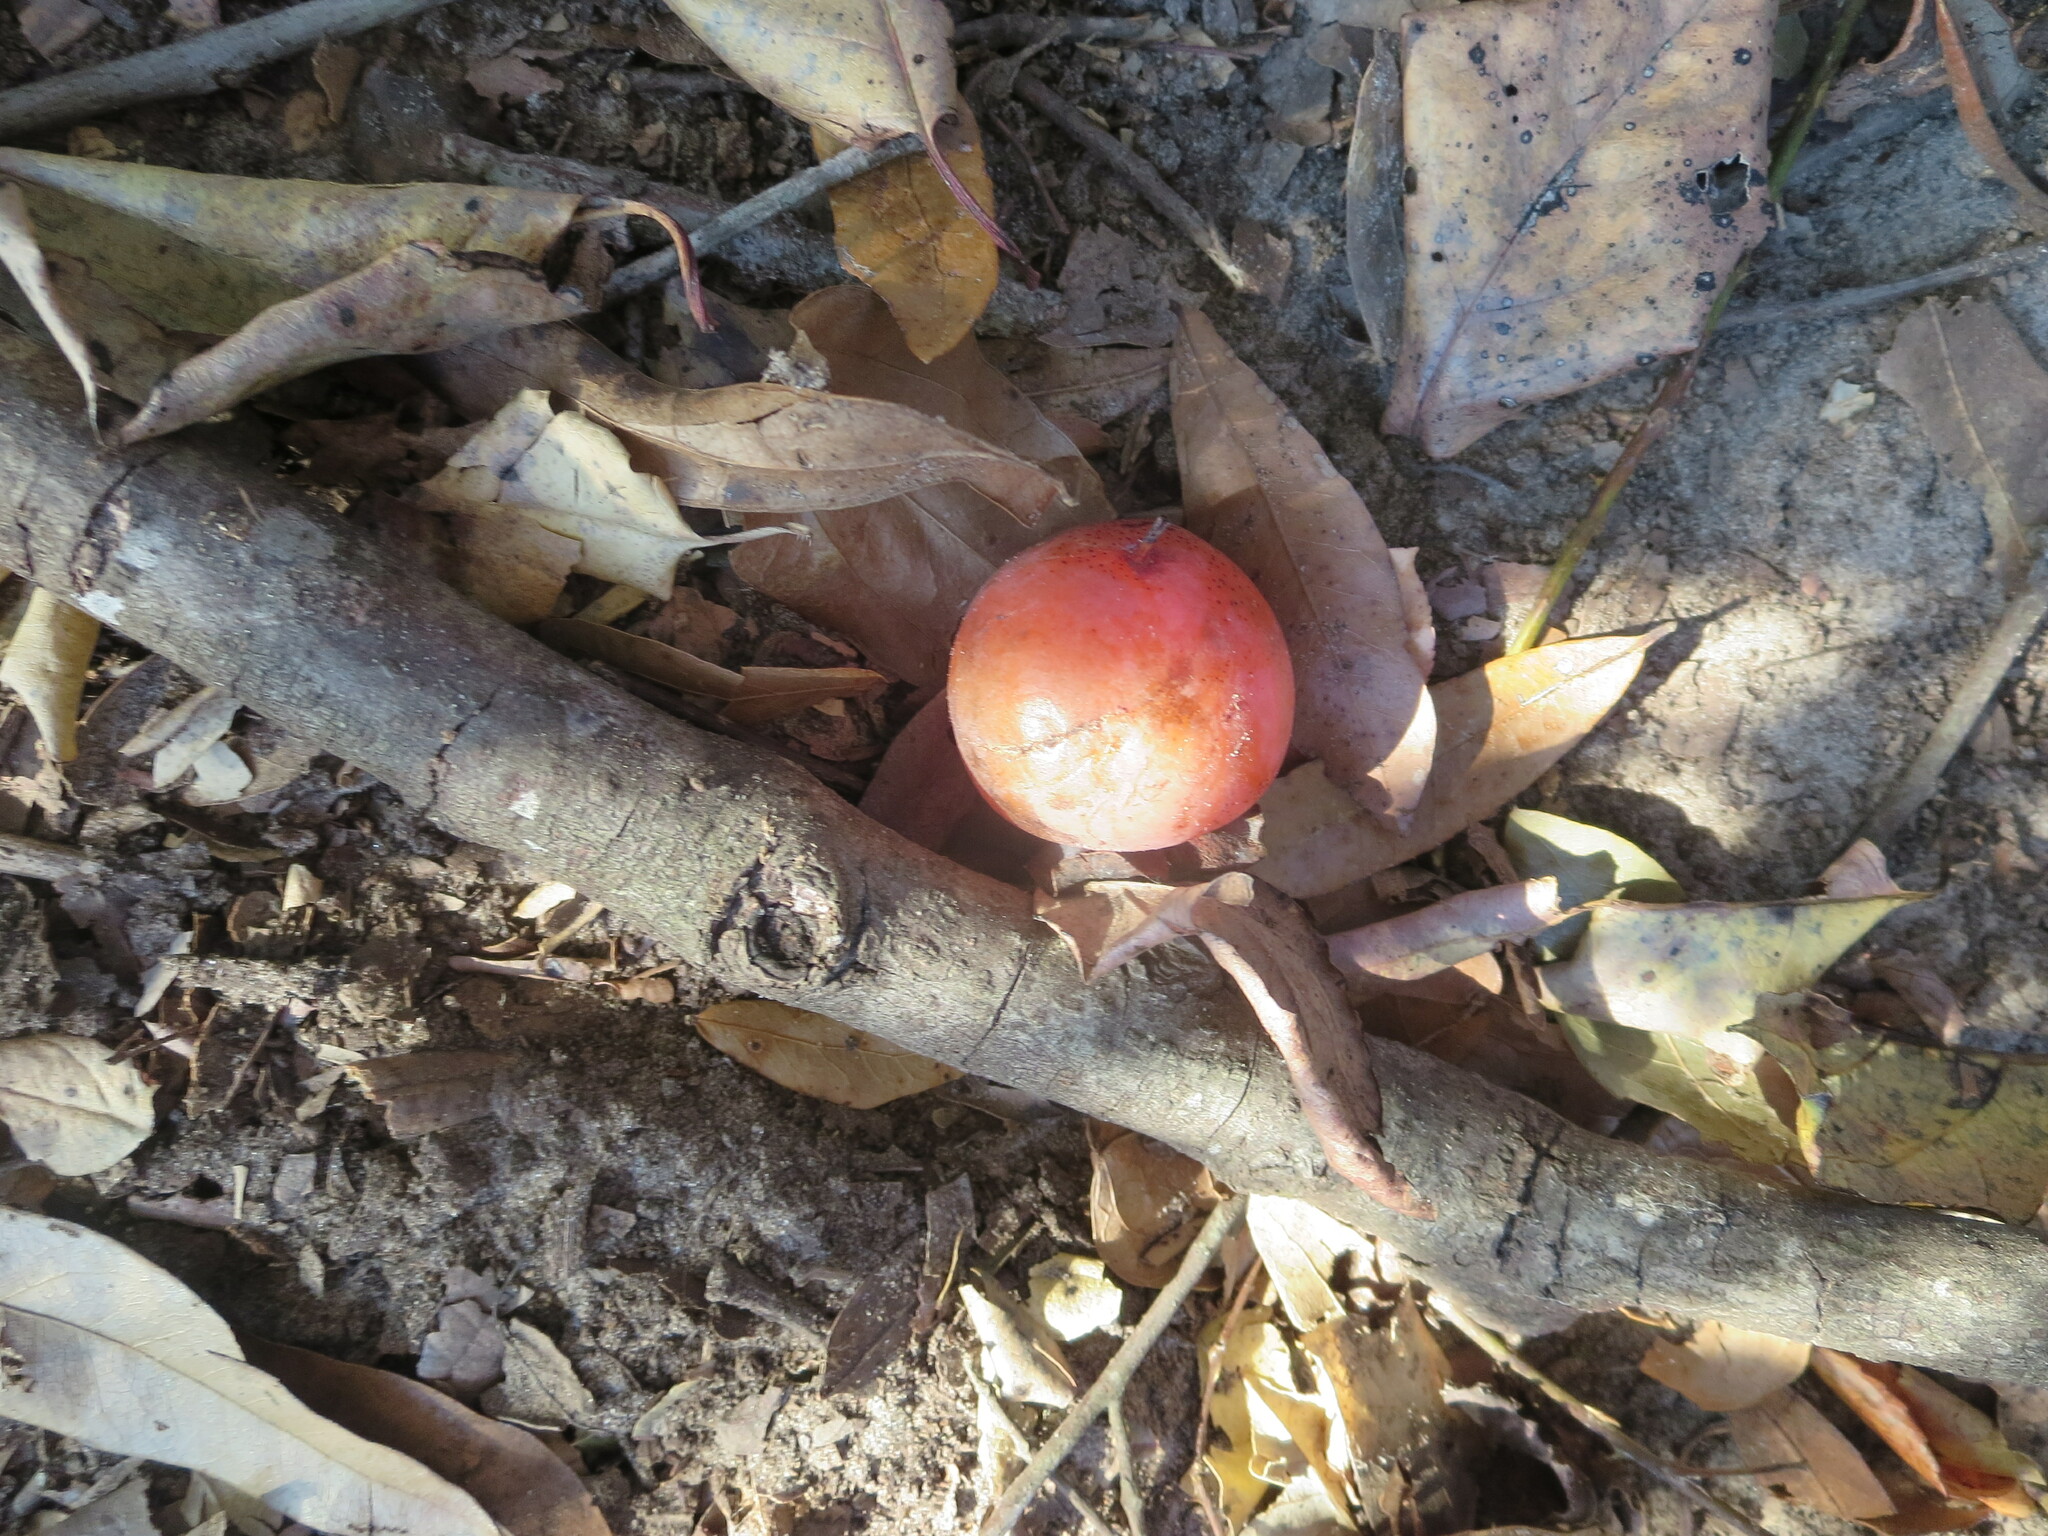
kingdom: Plantae
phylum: Tracheophyta
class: Magnoliopsida
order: Ericales
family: Ebenaceae
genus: Diospyros
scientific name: Diospyros virginiana
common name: Persimmon
